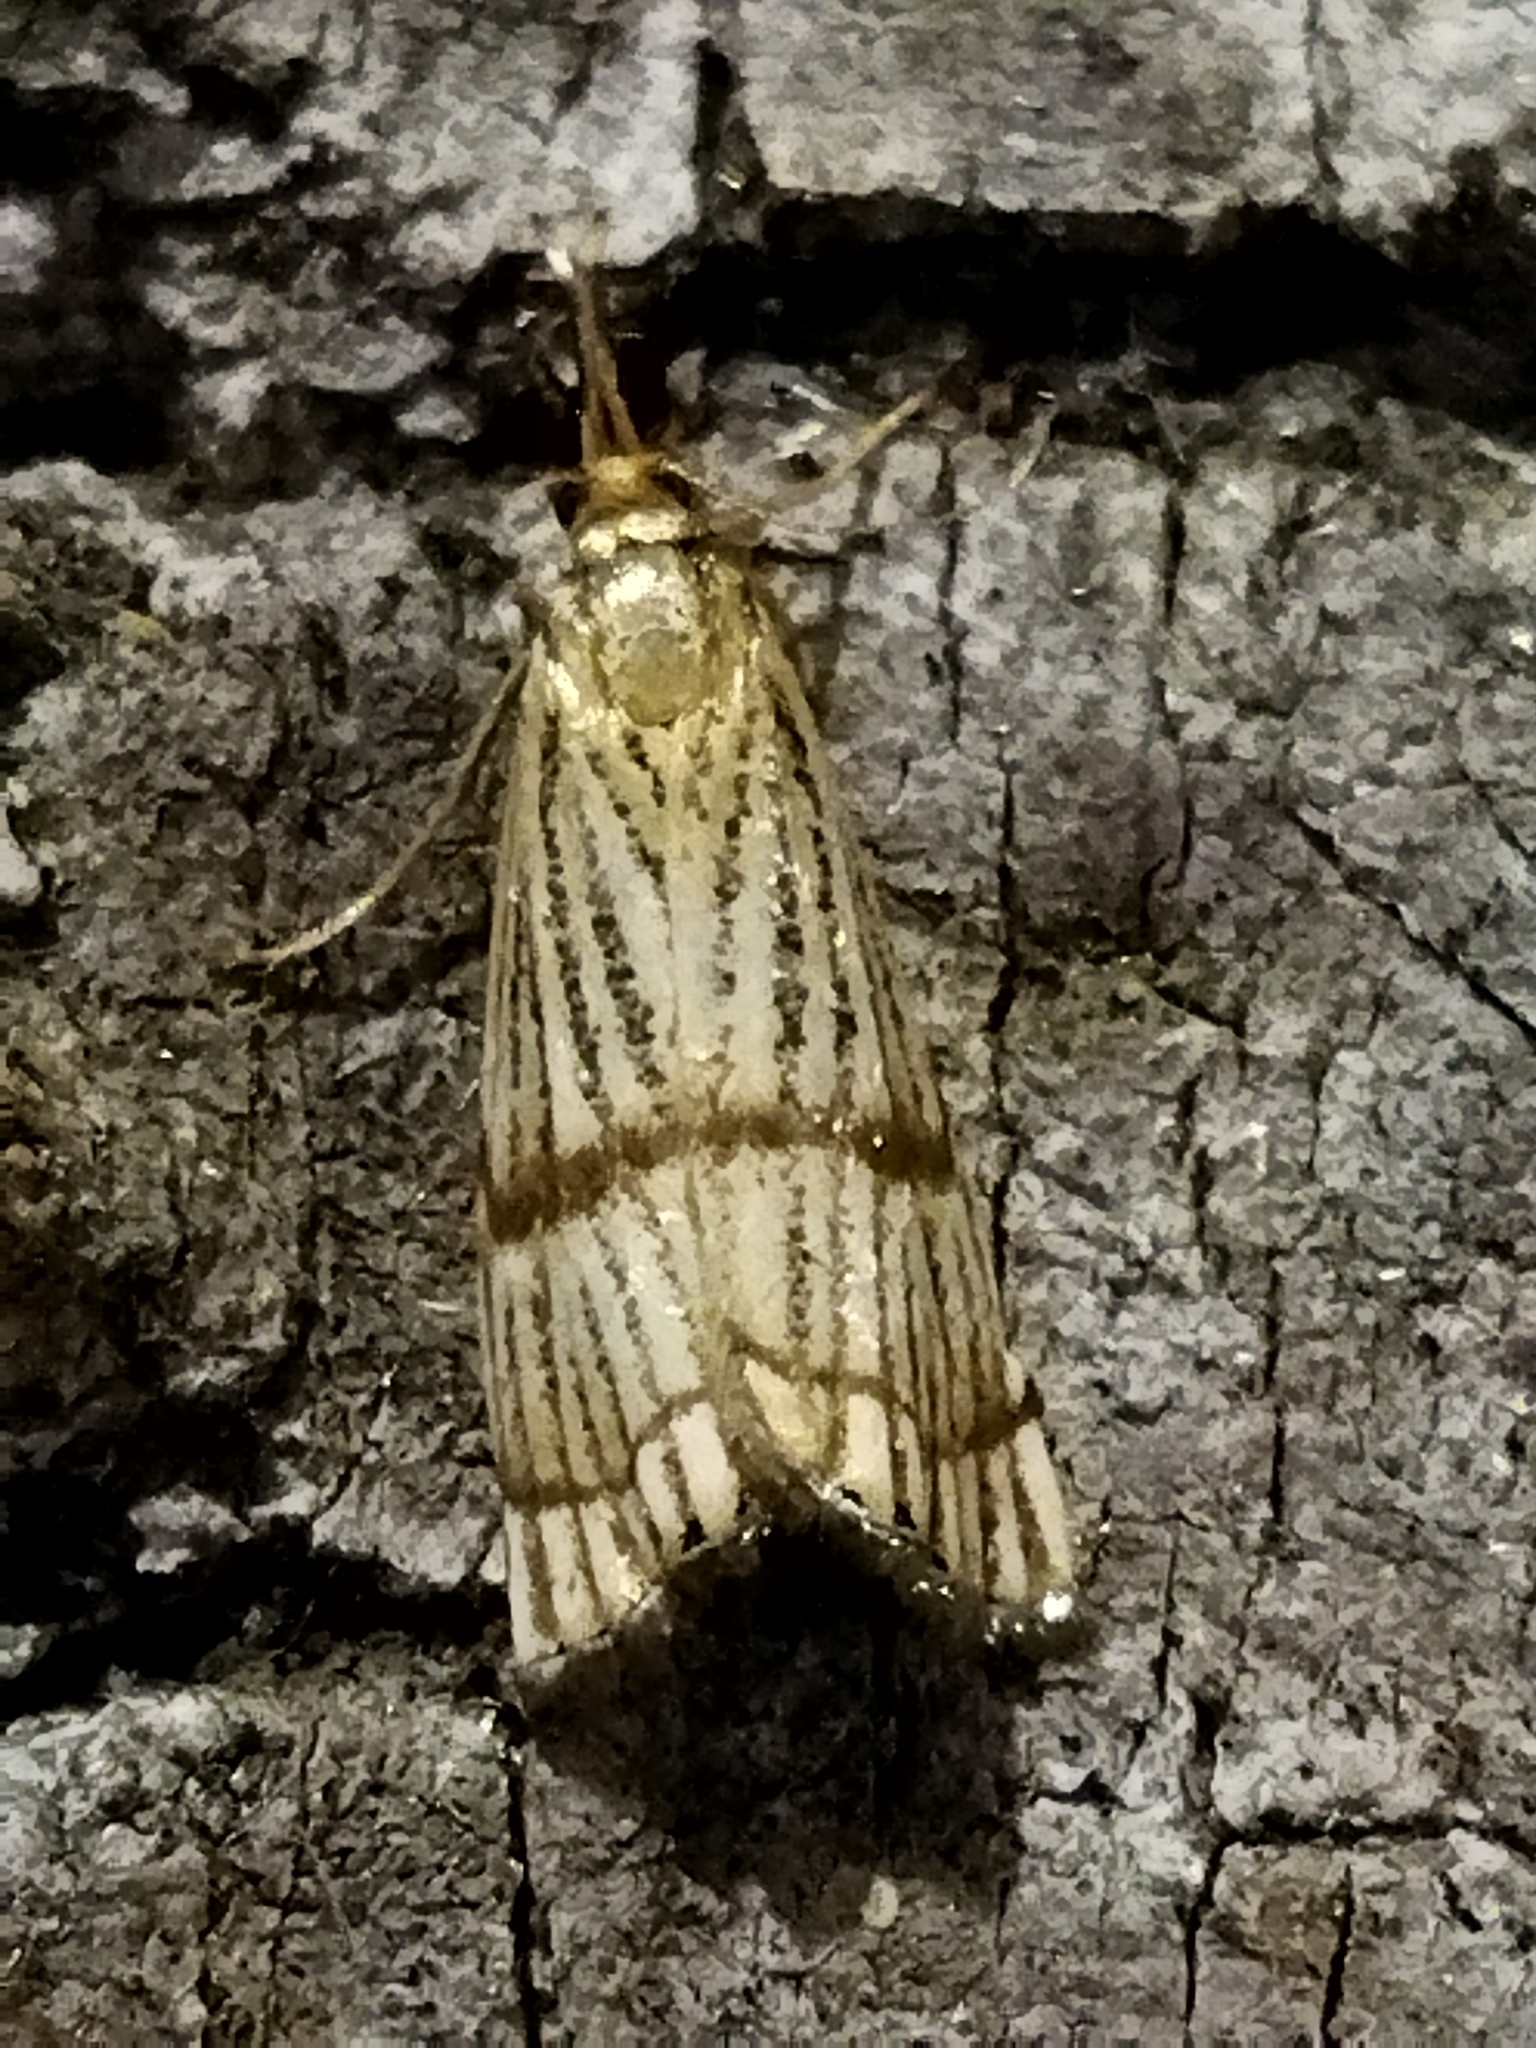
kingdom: Animalia
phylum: Arthropoda
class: Insecta
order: Lepidoptera
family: Crambidae
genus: Chrysocrambus
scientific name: Chrysocrambus linetella
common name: Orange-bar grass-veneer
